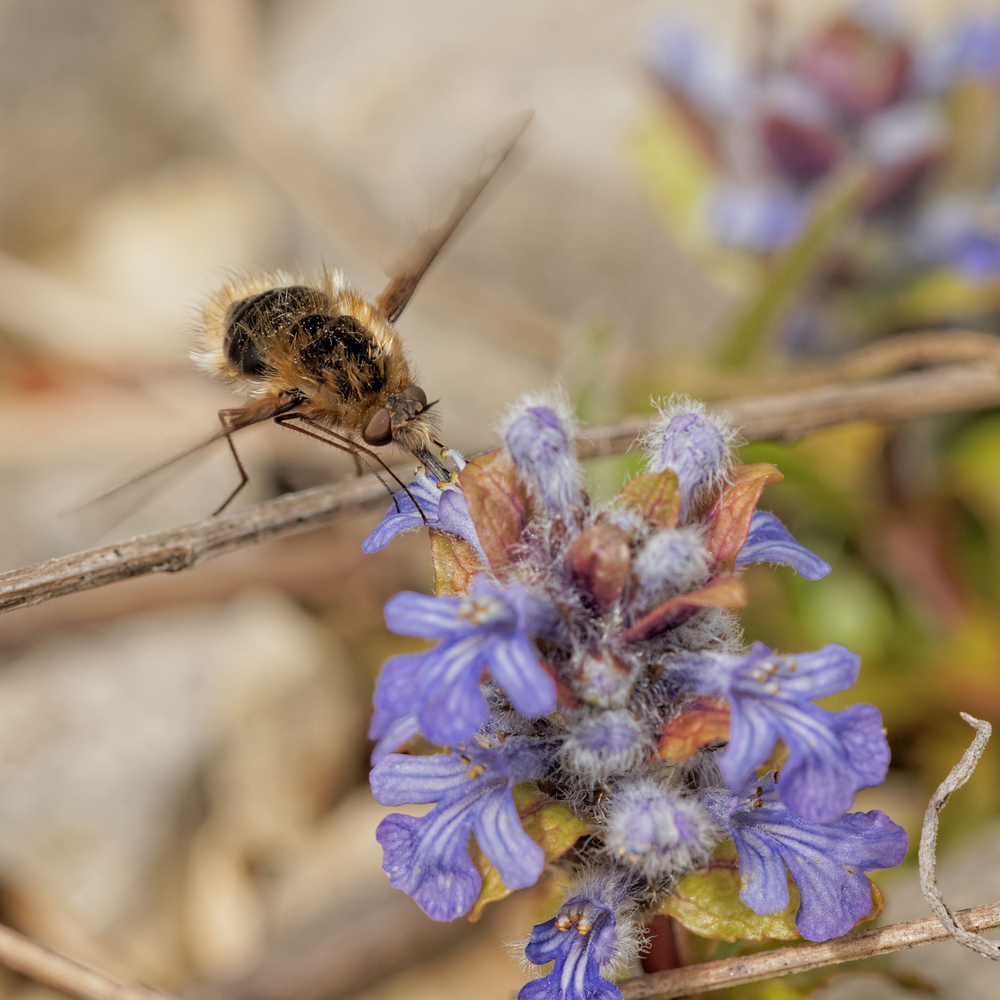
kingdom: Animalia
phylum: Arthropoda
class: Insecta
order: Diptera
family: Bombyliidae
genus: Bombylius
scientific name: Bombylius major
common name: Bee fly
